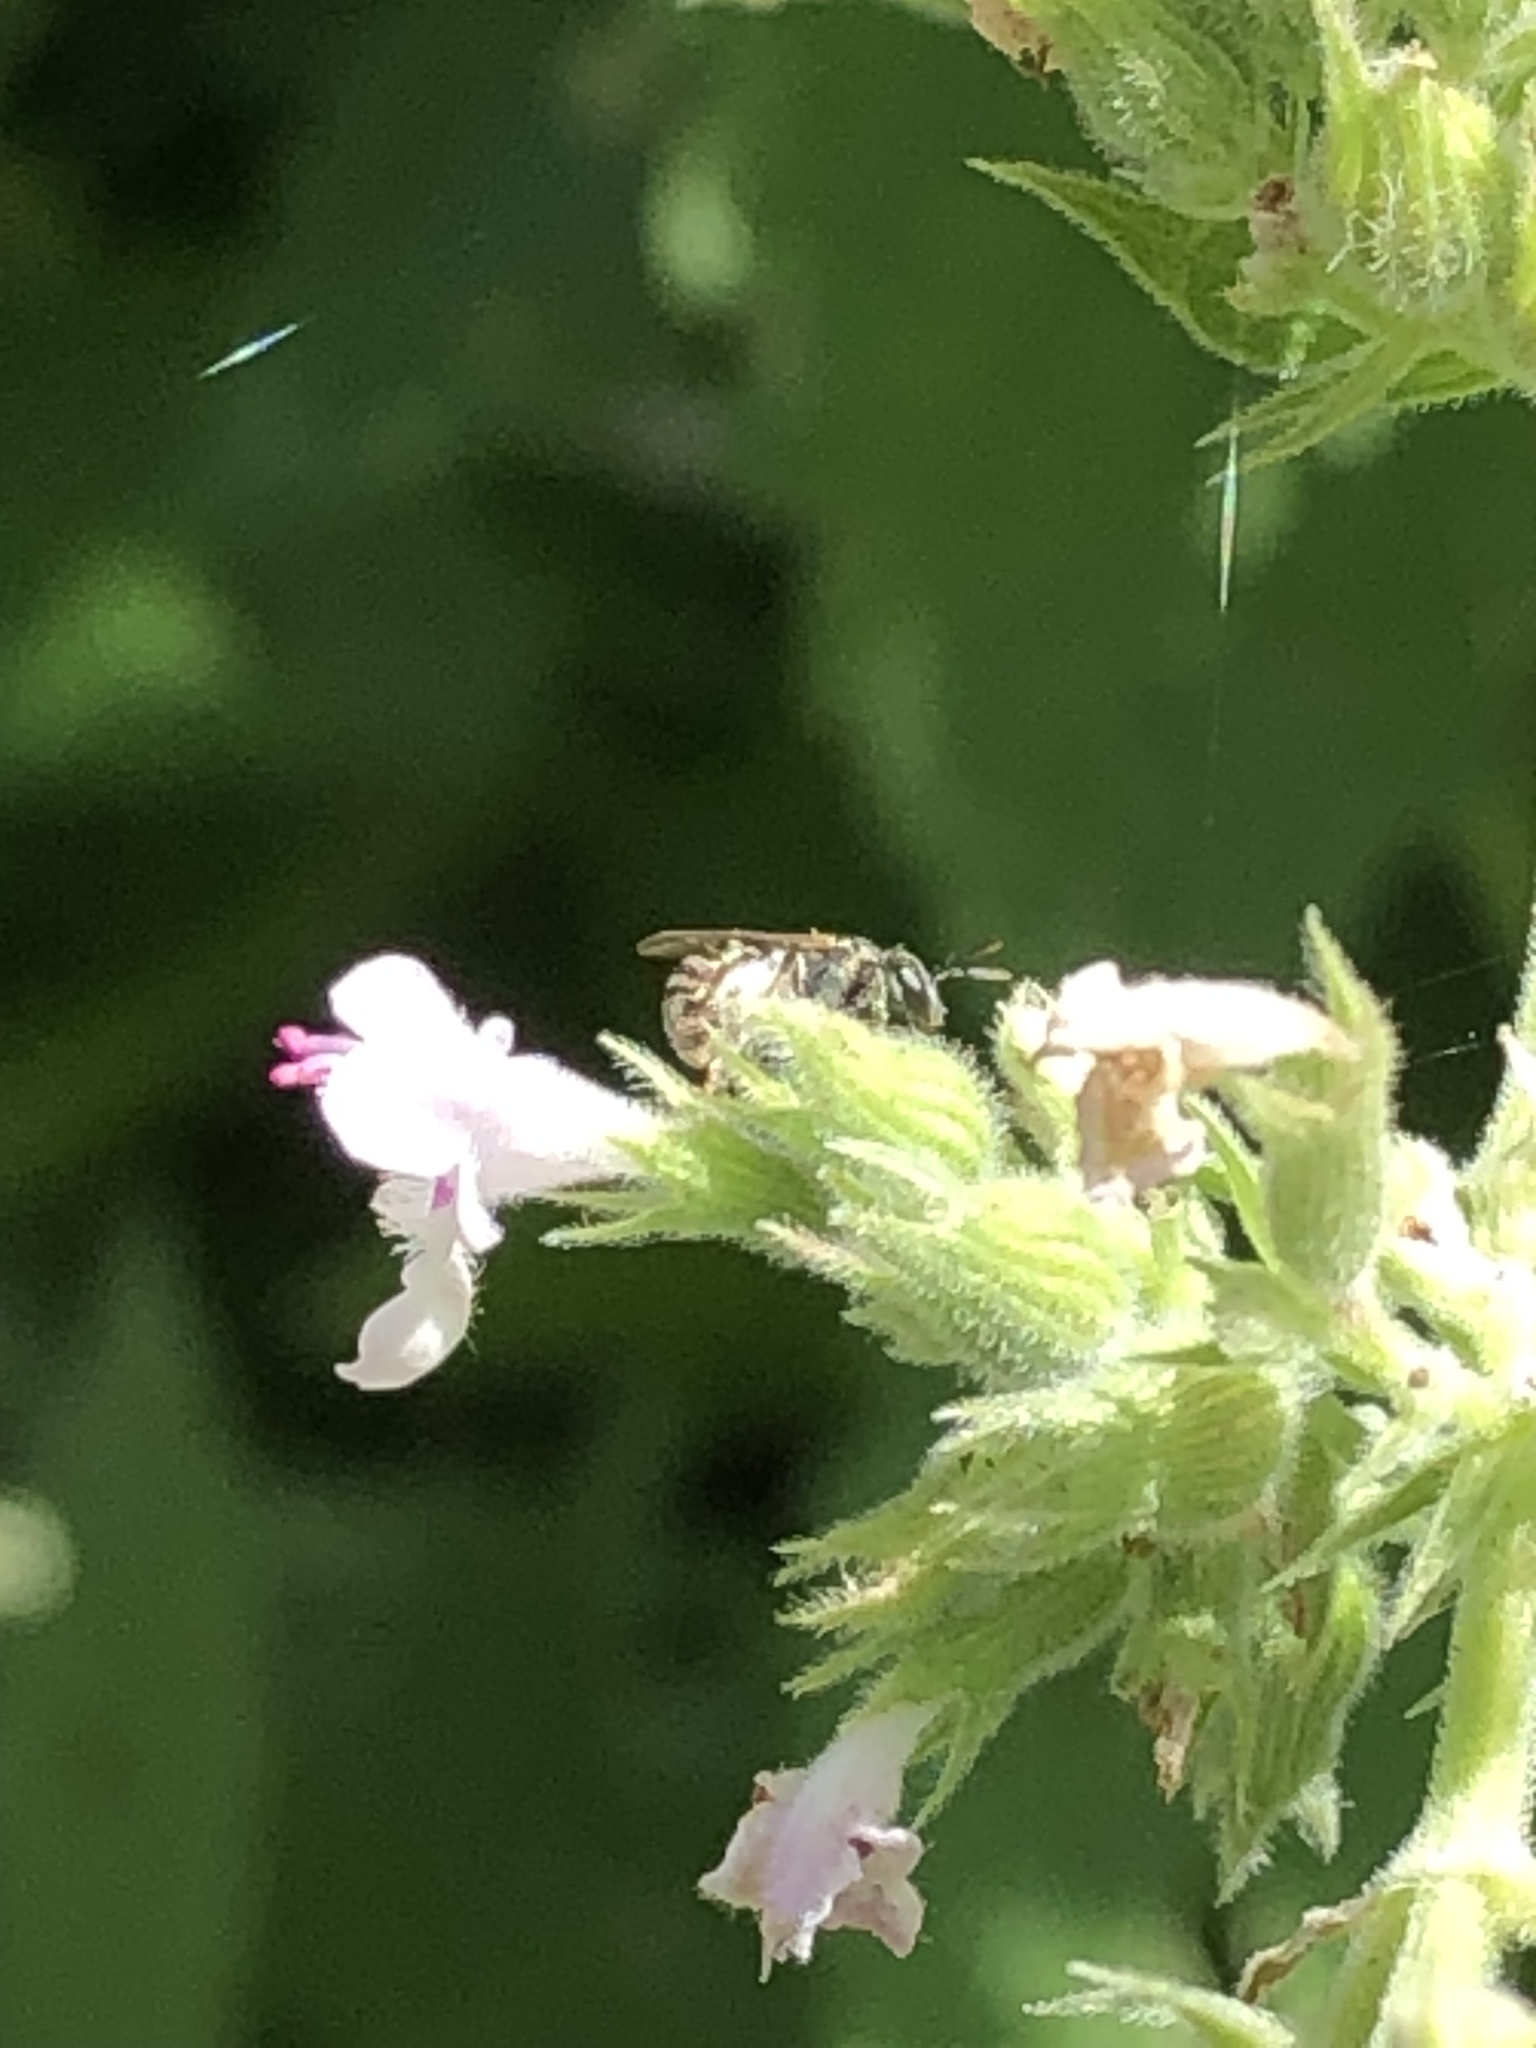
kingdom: Animalia
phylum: Arthropoda
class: Insecta
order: Hymenoptera
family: Halictidae
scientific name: Halictidae
